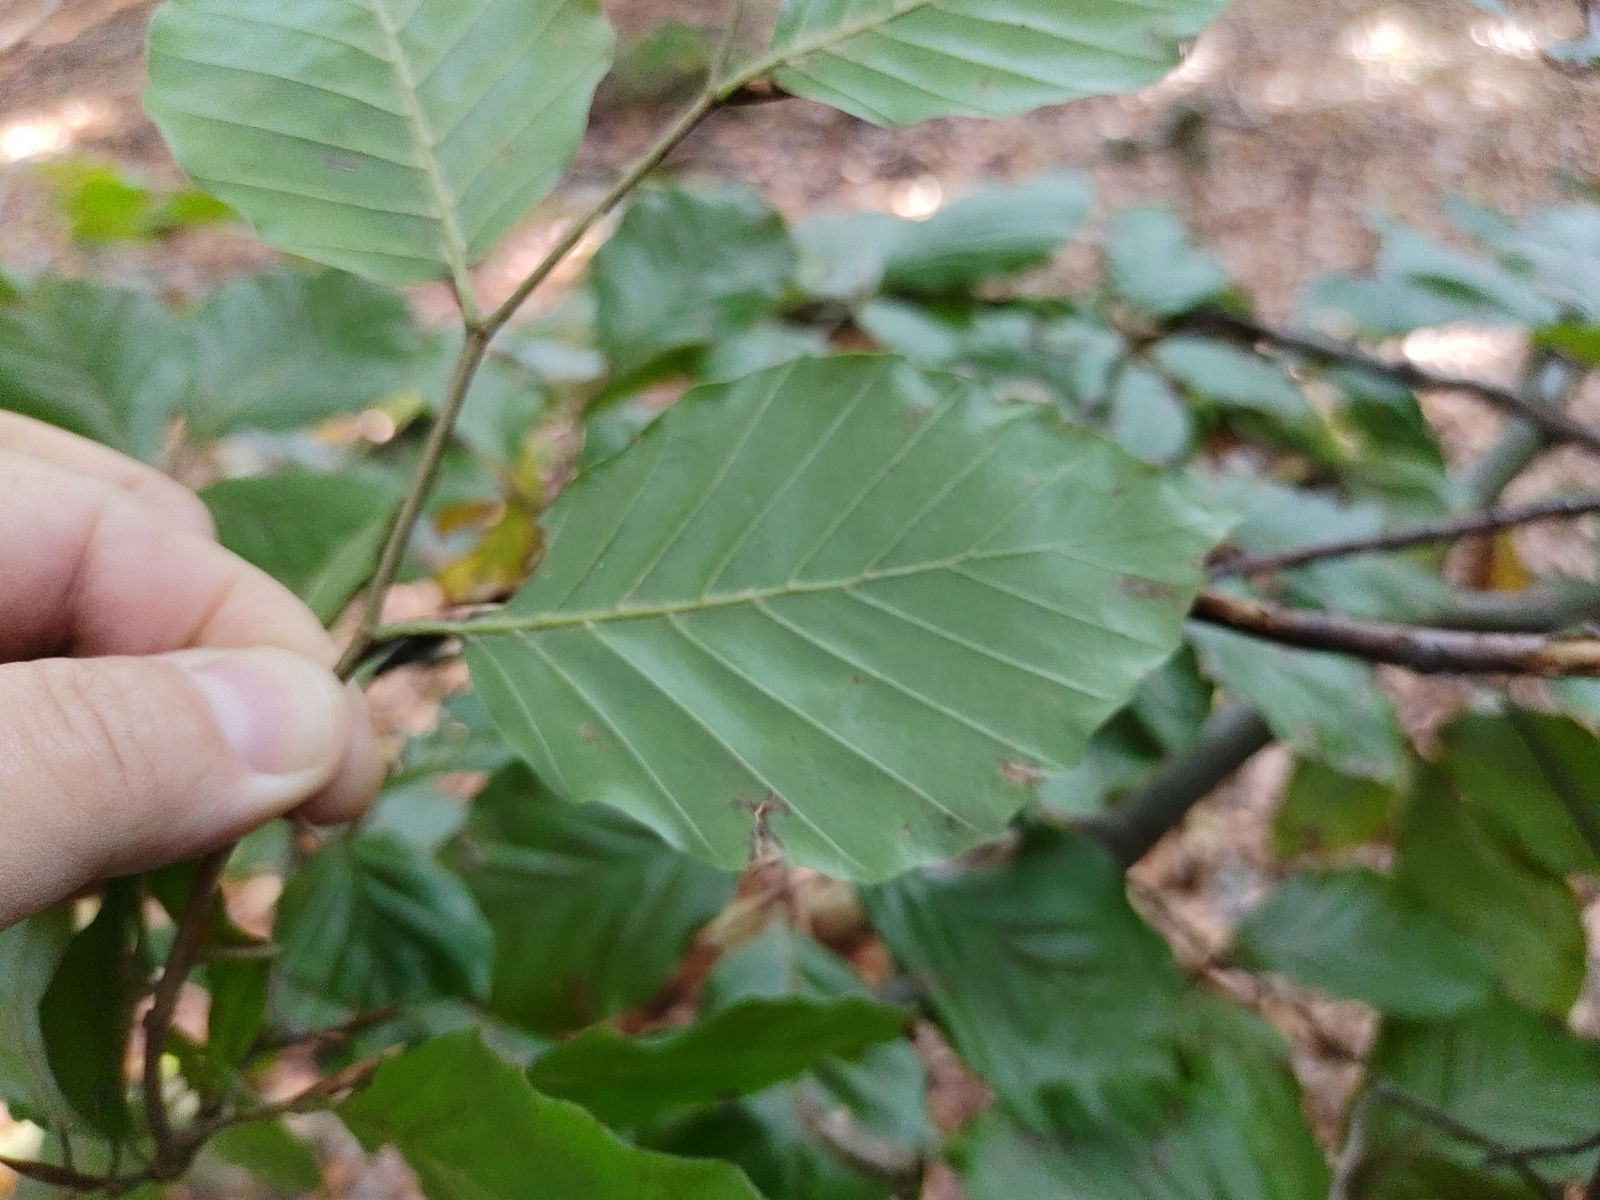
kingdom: Plantae
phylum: Tracheophyta
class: Magnoliopsida
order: Fagales
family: Fagaceae
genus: Fagus
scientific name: Fagus sylvatica
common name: Beech
